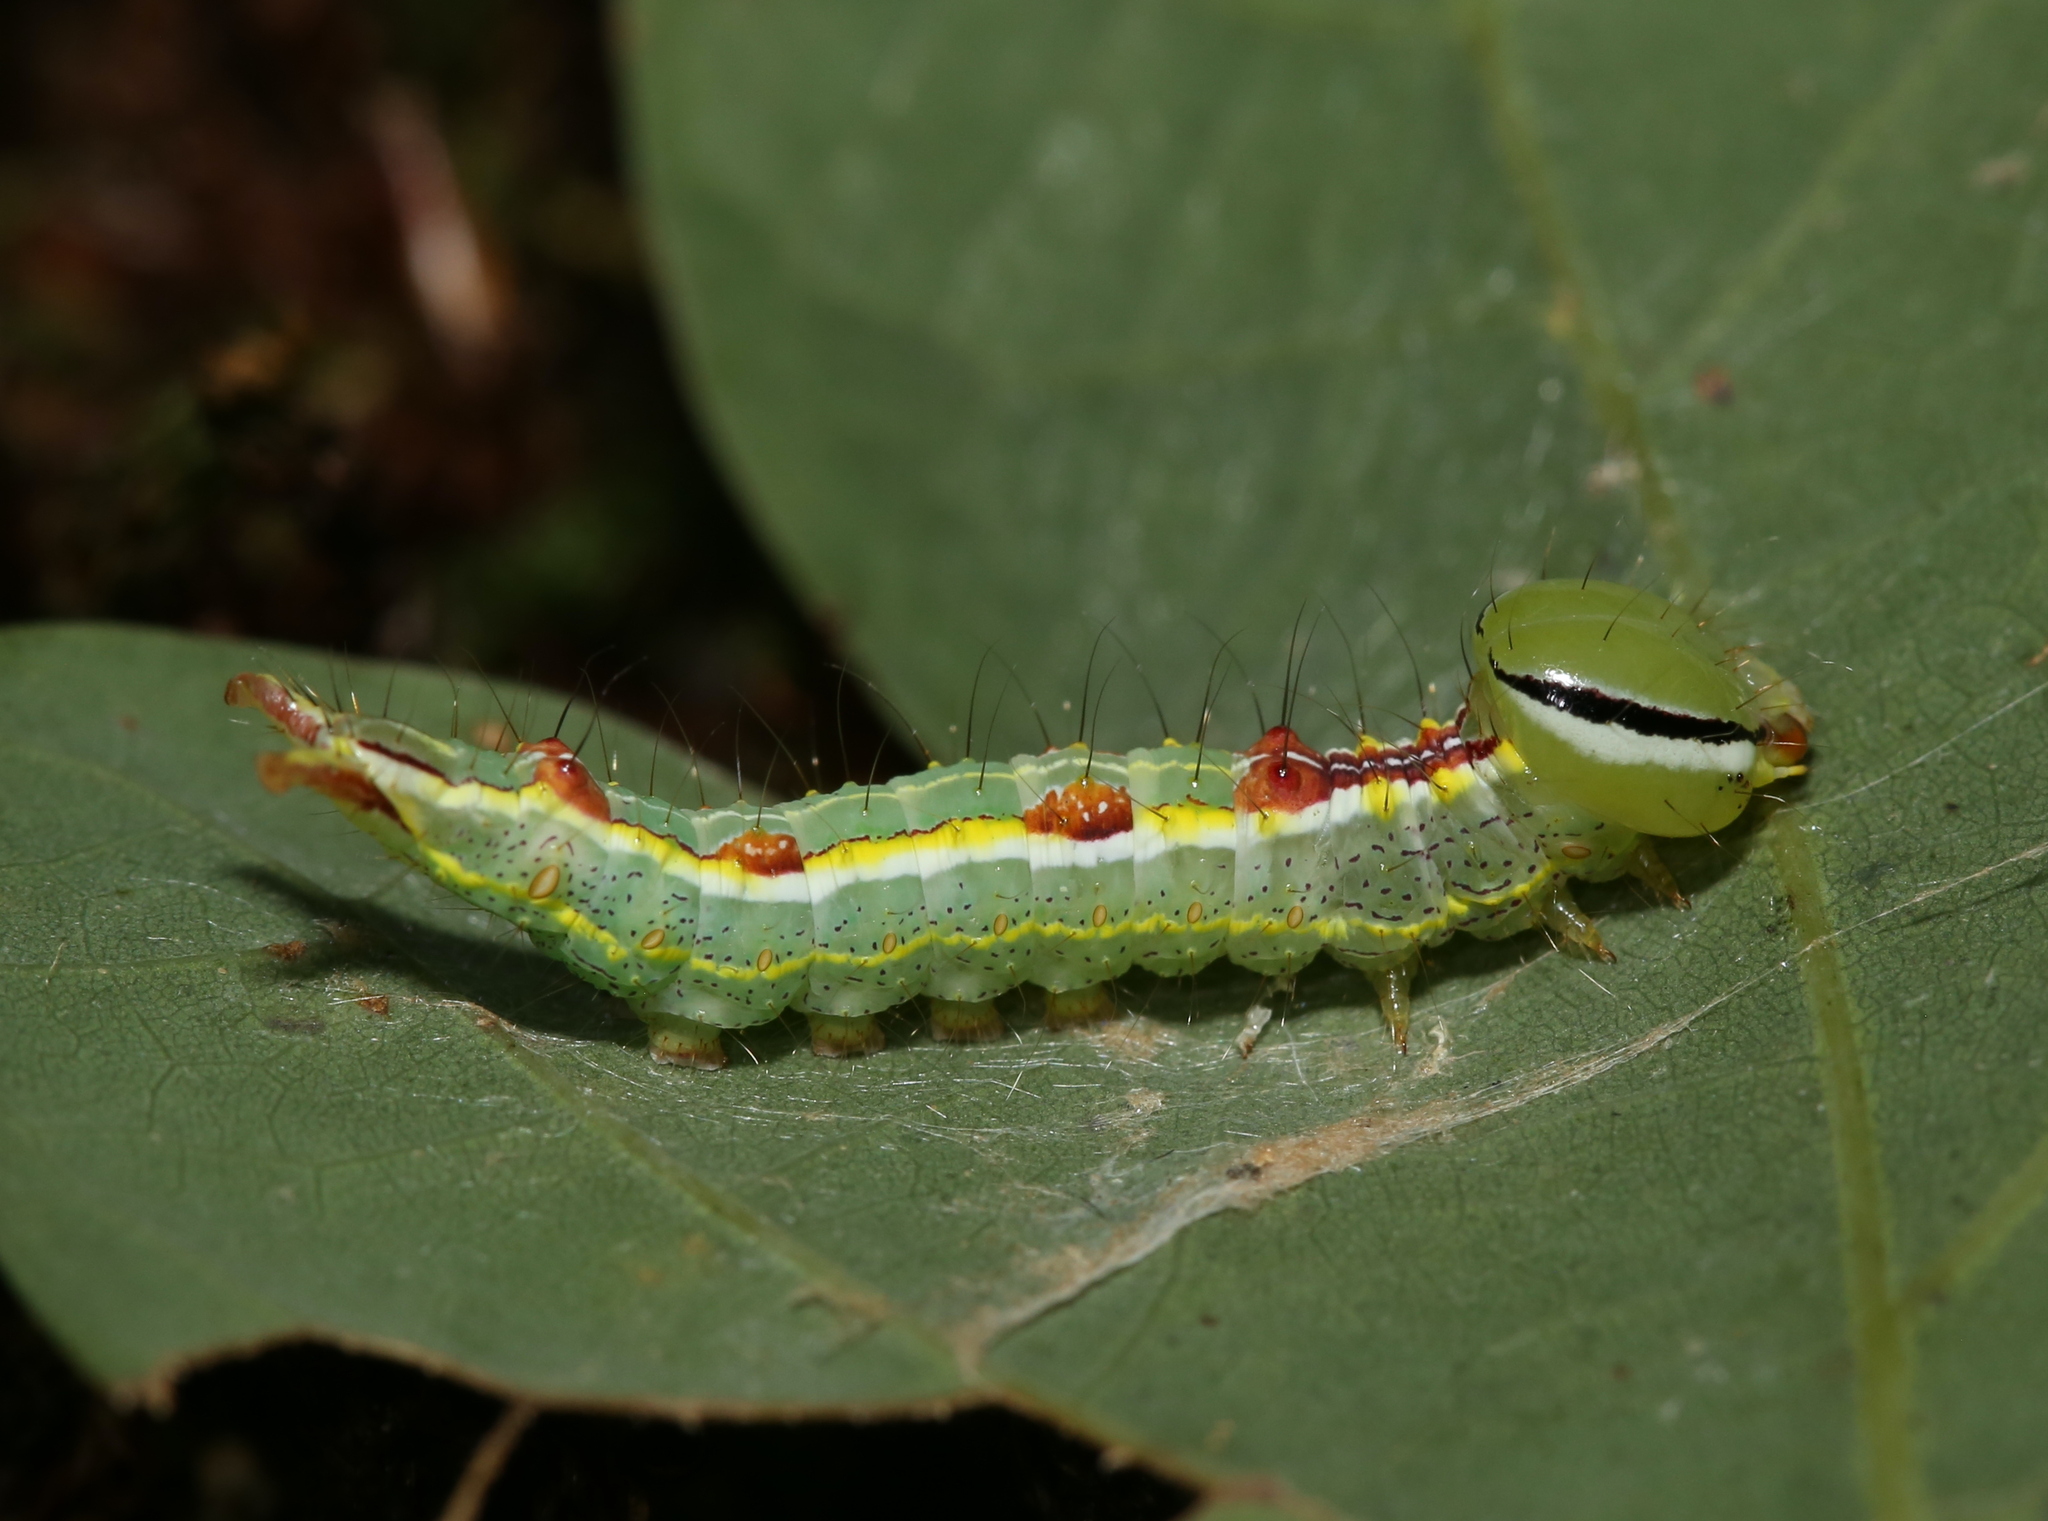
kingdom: Animalia
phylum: Arthropoda
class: Insecta
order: Lepidoptera
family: Notodontidae
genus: Lochmaeus
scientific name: Lochmaeus manteo
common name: Variable oakleaf caterpillar moth
